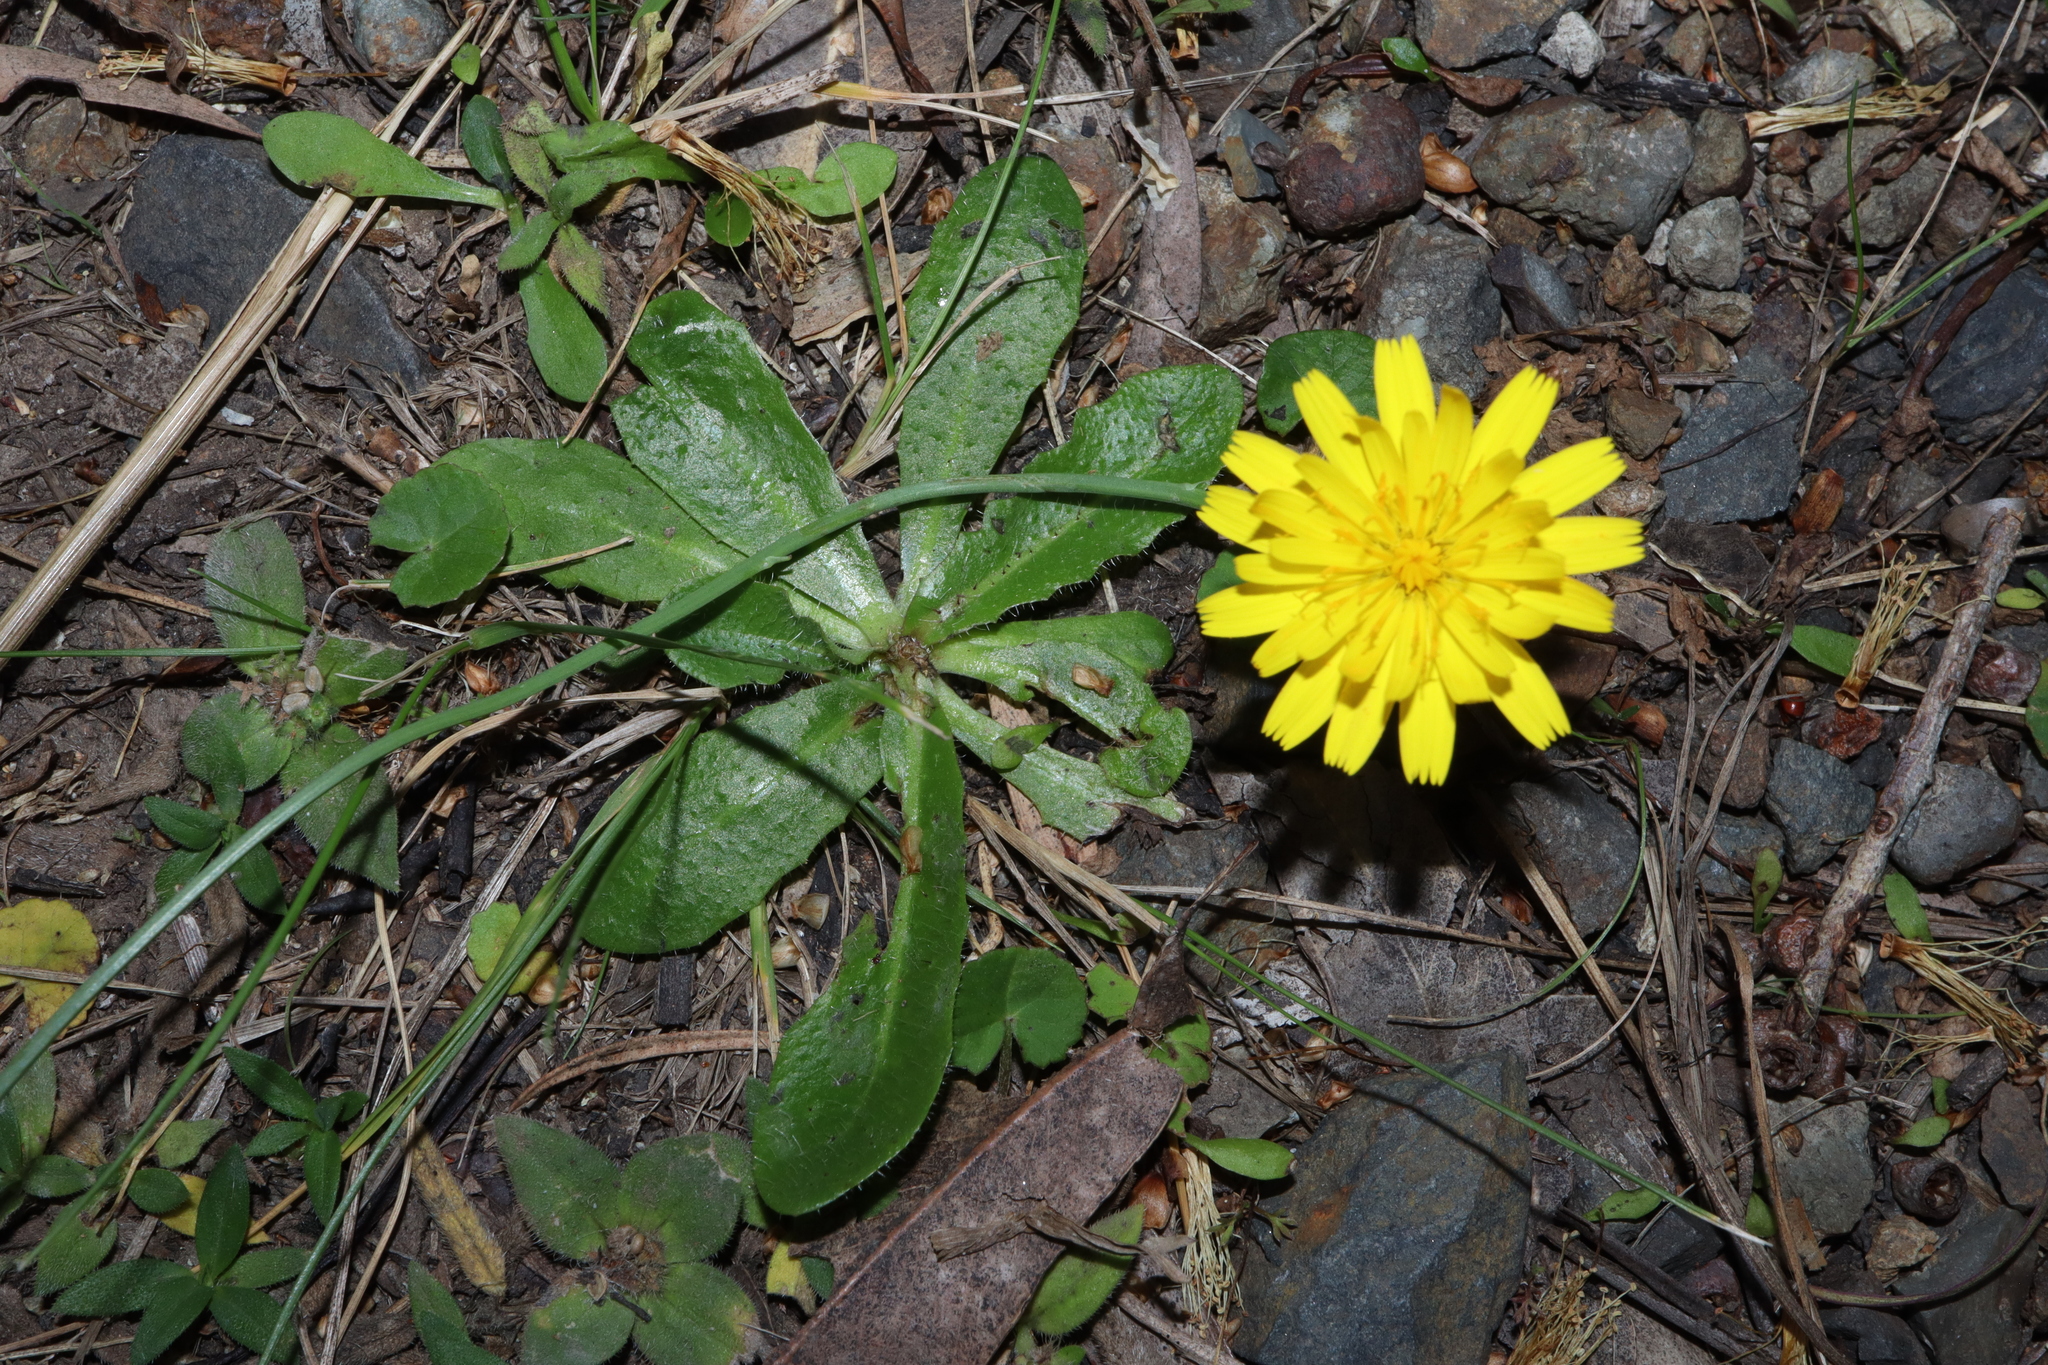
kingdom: Plantae
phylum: Tracheophyta
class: Magnoliopsida
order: Asterales
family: Asteraceae
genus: Hypochaeris
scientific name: Hypochaeris radicata
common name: Flatweed
